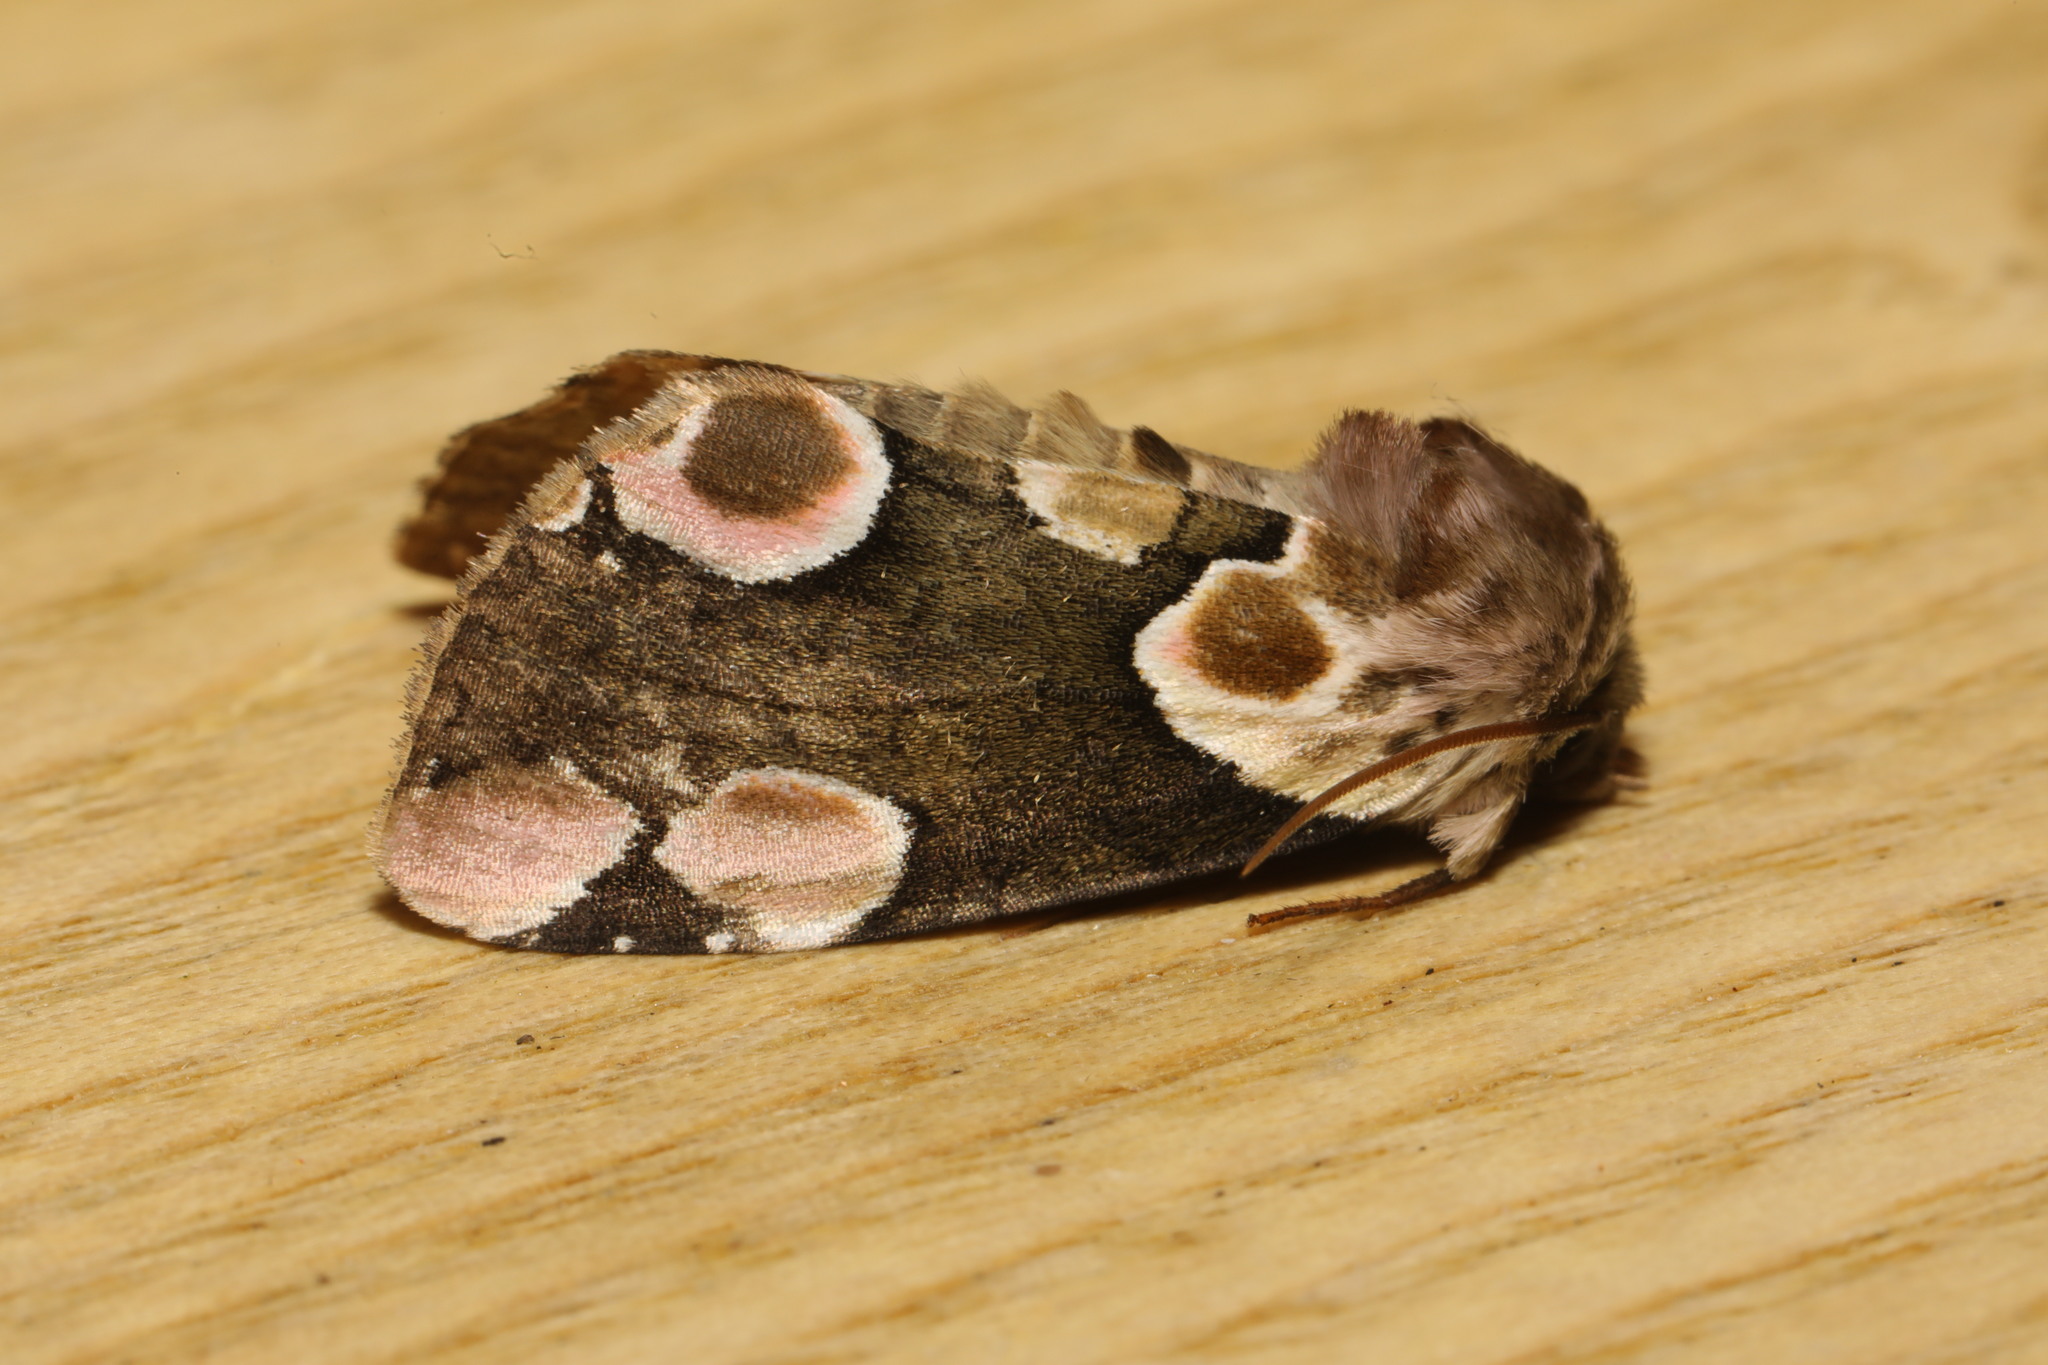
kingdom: Animalia
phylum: Arthropoda
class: Insecta
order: Lepidoptera
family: Drepanidae
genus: Thyatira
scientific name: Thyatira batis
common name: Peach blossom
